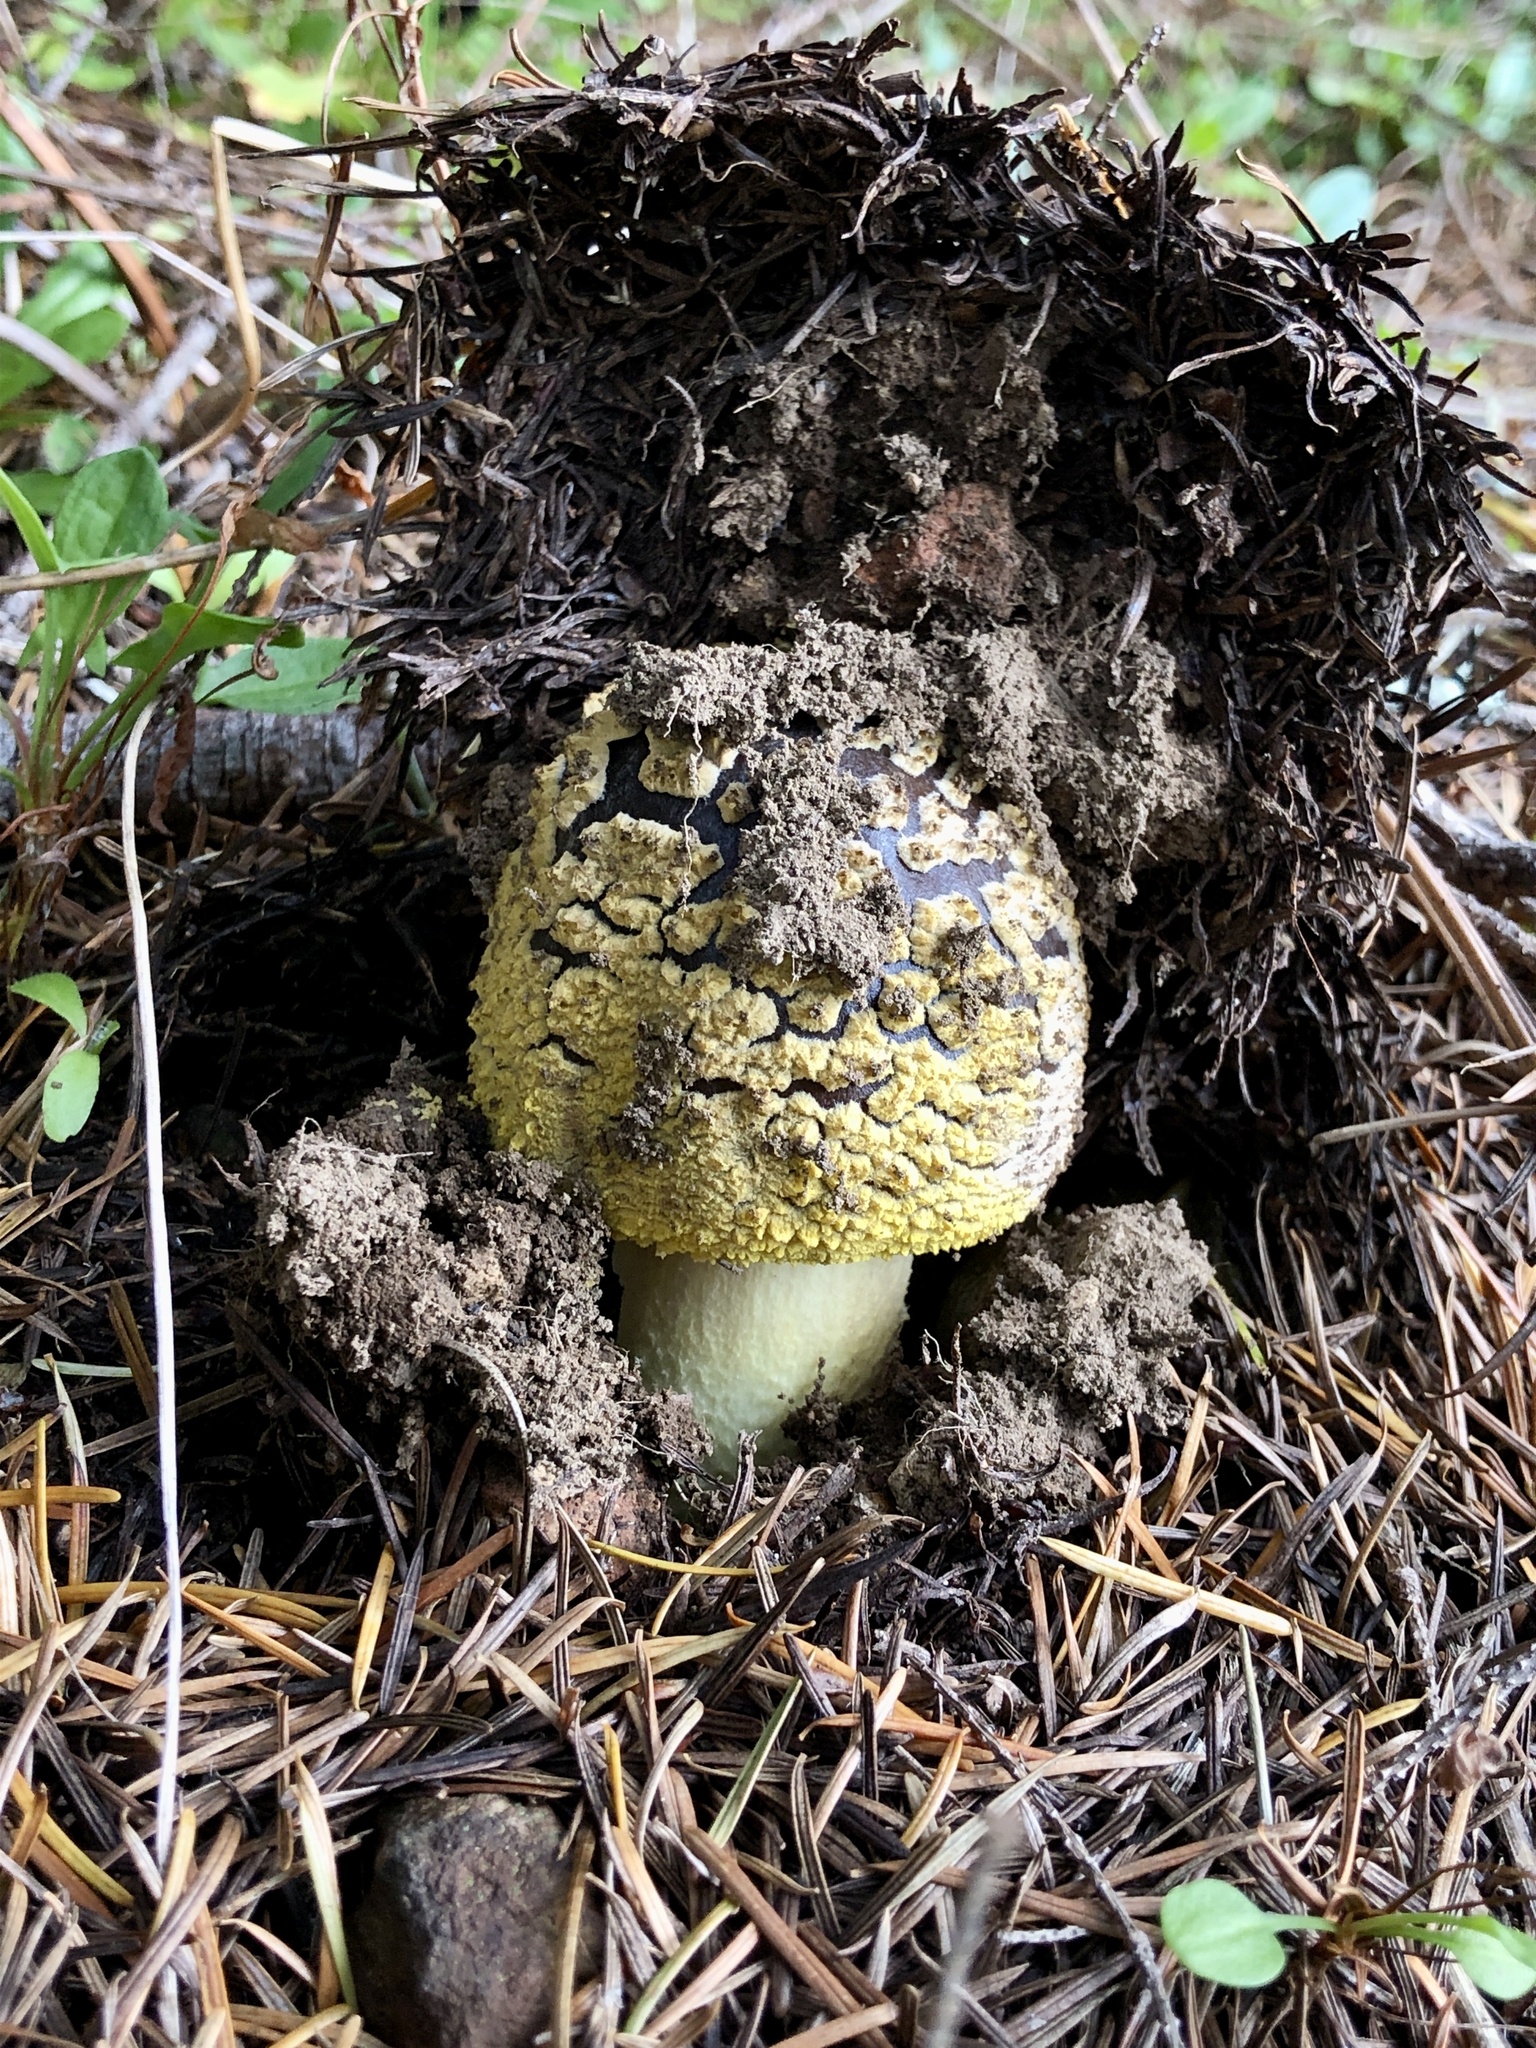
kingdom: Fungi
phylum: Basidiomycota
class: Agaricomycetes
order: Agaricales
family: Amanitaceae
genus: Amanita
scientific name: Amanita augusta
